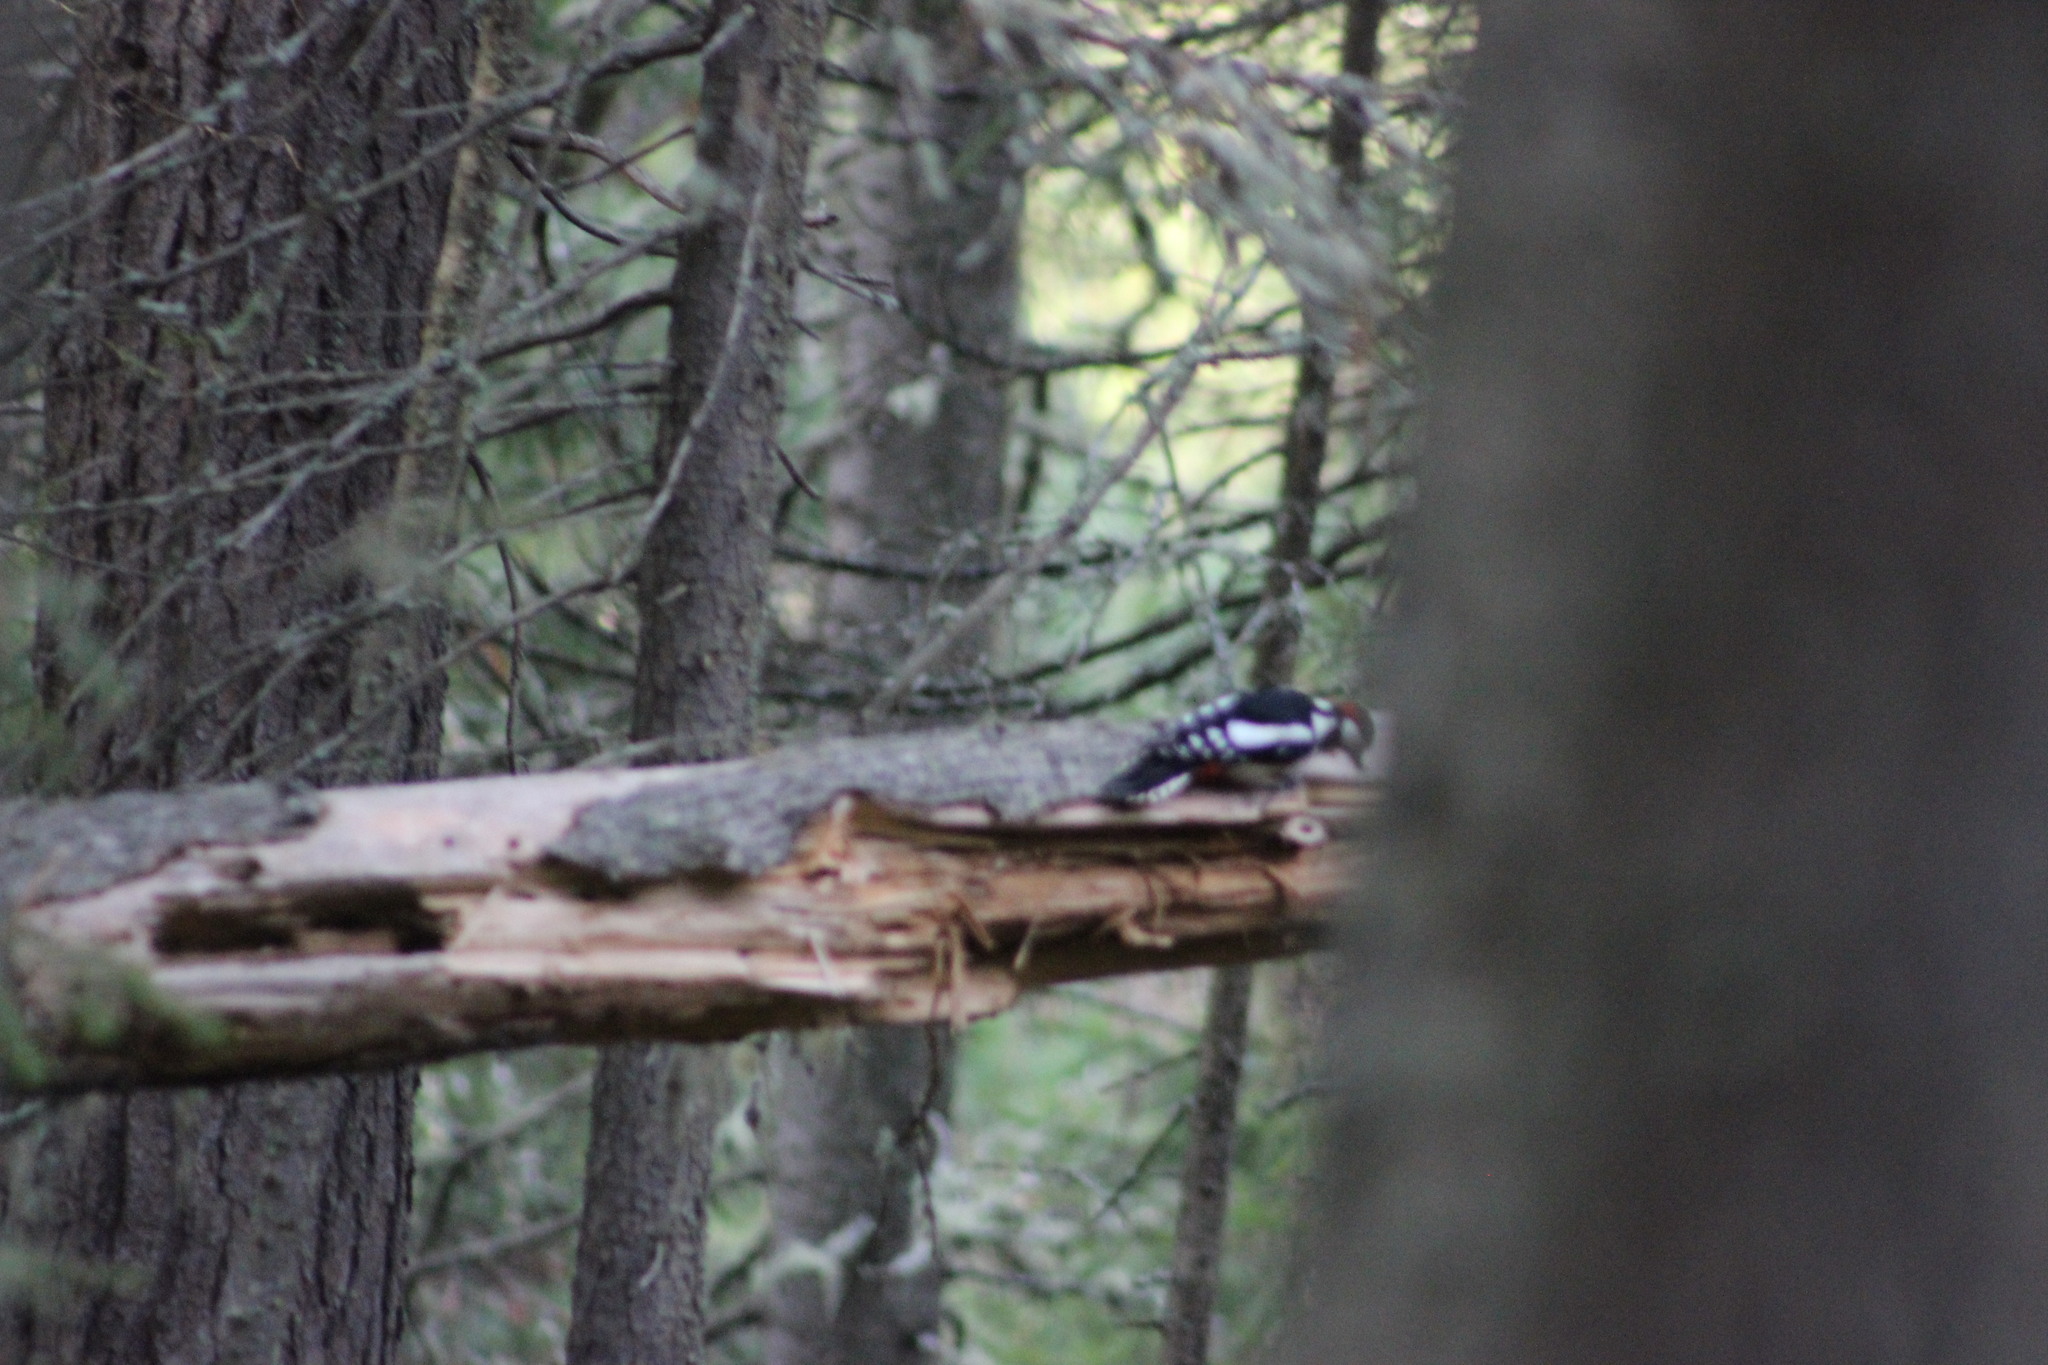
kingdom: Animalia
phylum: Chordata
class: Aves
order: Piciformes
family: Picidae
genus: Dendrocopos
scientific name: Dendrocopos major
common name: Great spotted woodpecker
